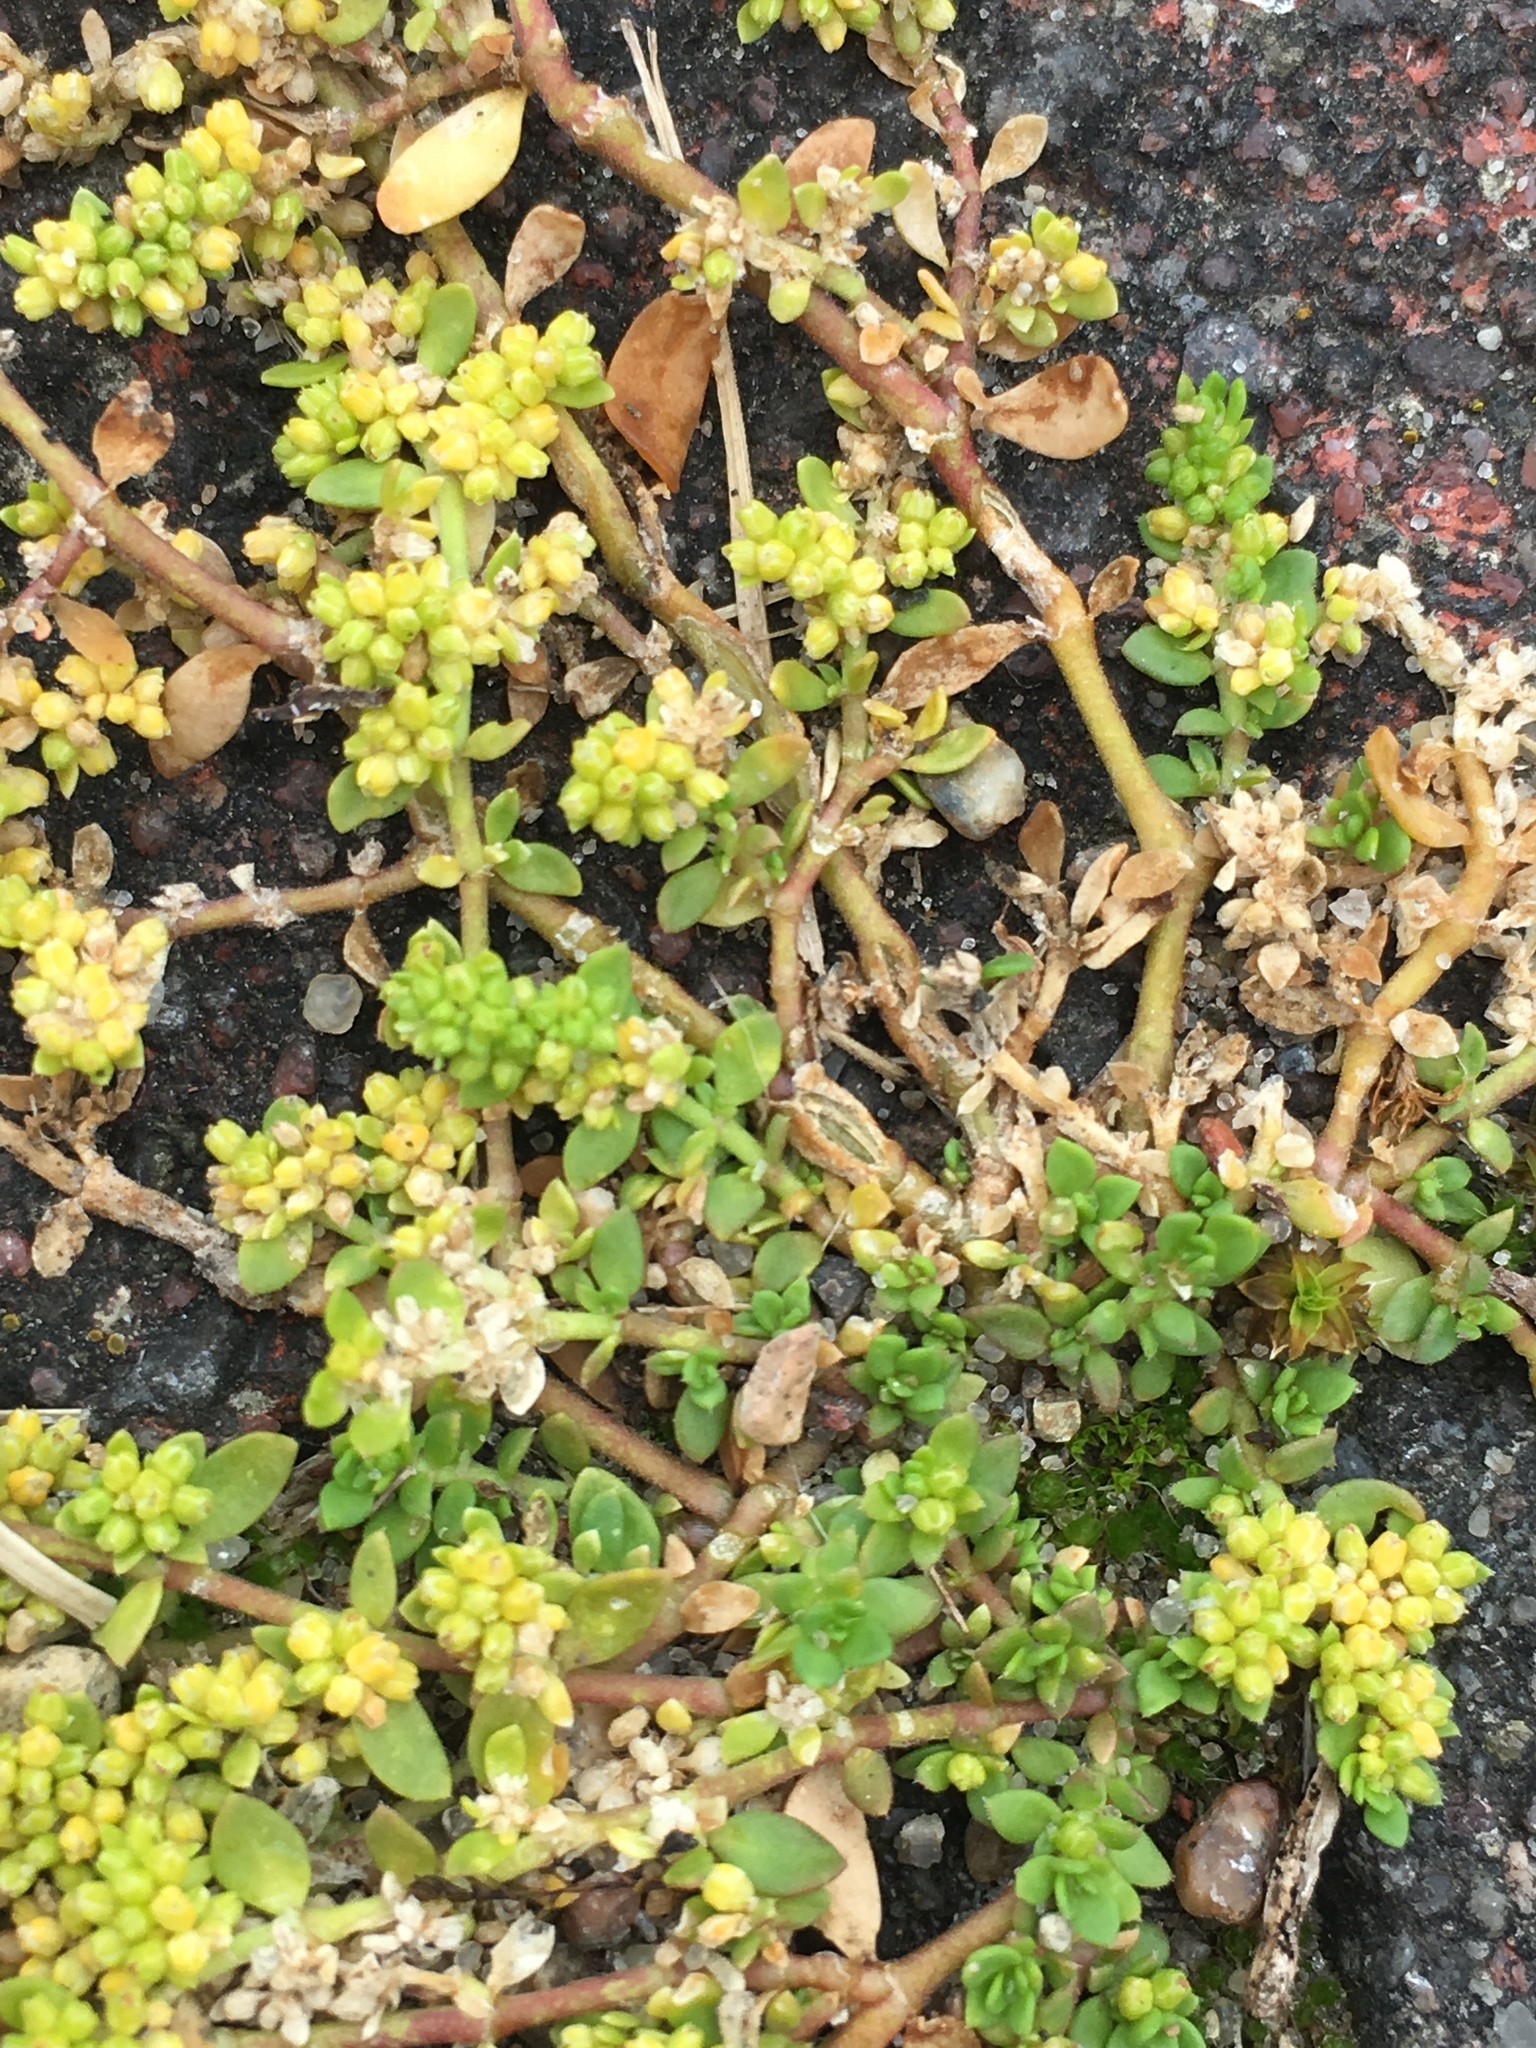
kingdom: Plantae
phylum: Tracheophyta
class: Magnoliopsida
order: Caryophyllales
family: Caryophyllaceae
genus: Herniaria
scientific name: Herniaria glabra
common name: Smooth rupturewort
